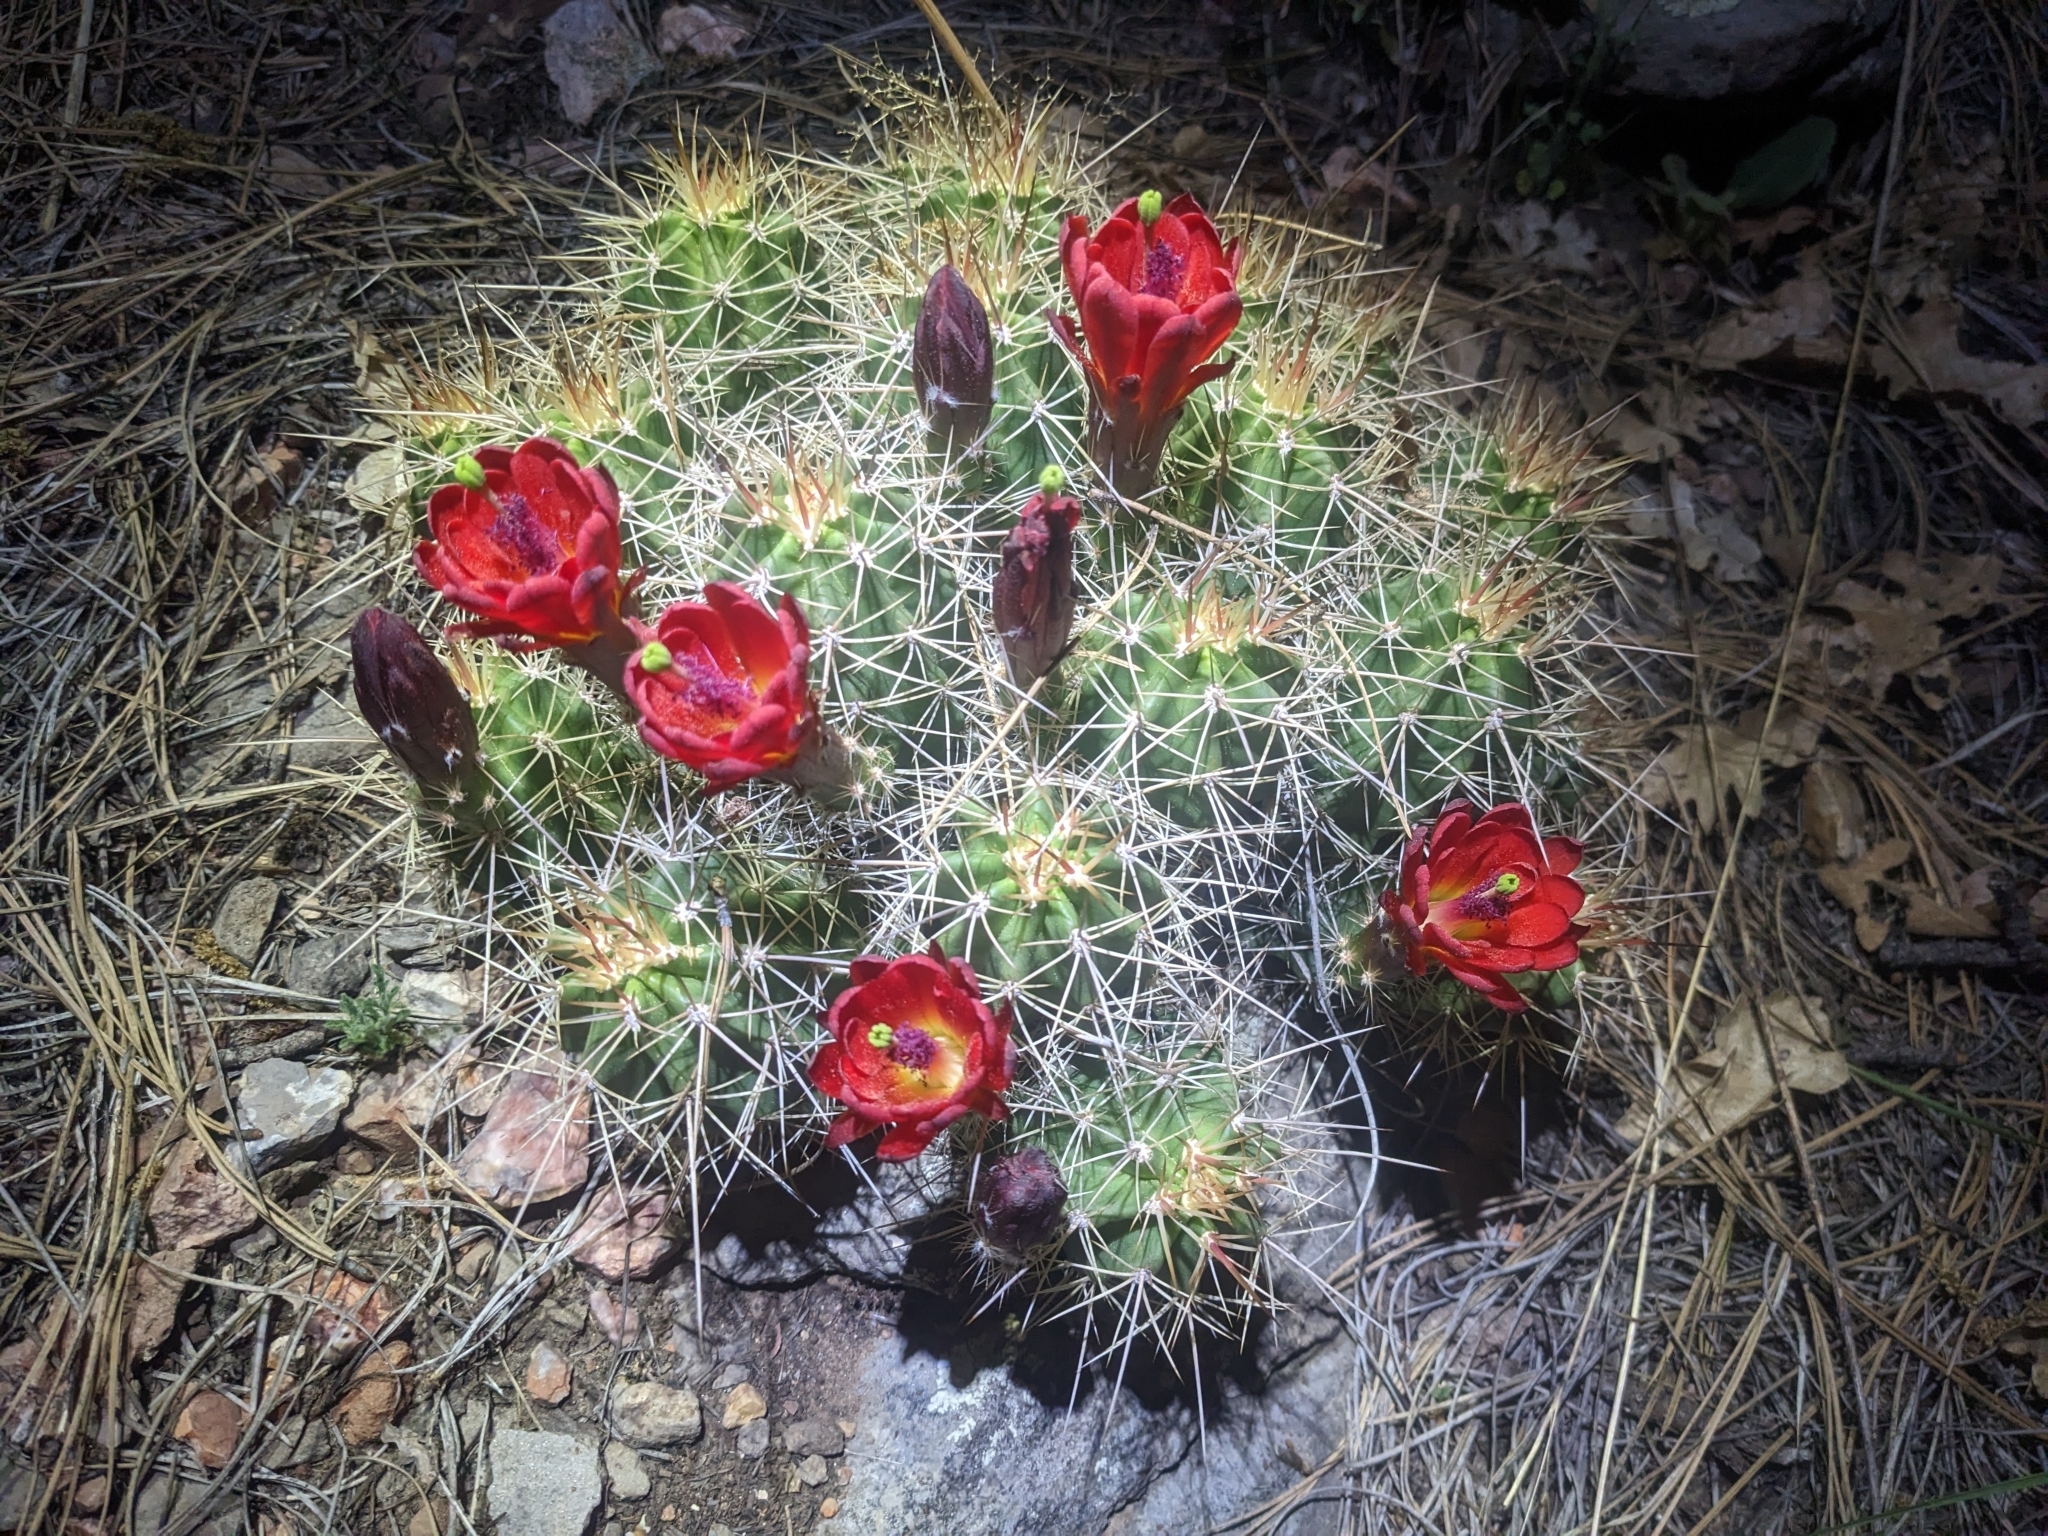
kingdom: Plantae
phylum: Tracheophyta
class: Magnoliopsida
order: Caryophyllales
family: Cactaceae
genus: Echinocereus
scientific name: Echinocereus bakeri
